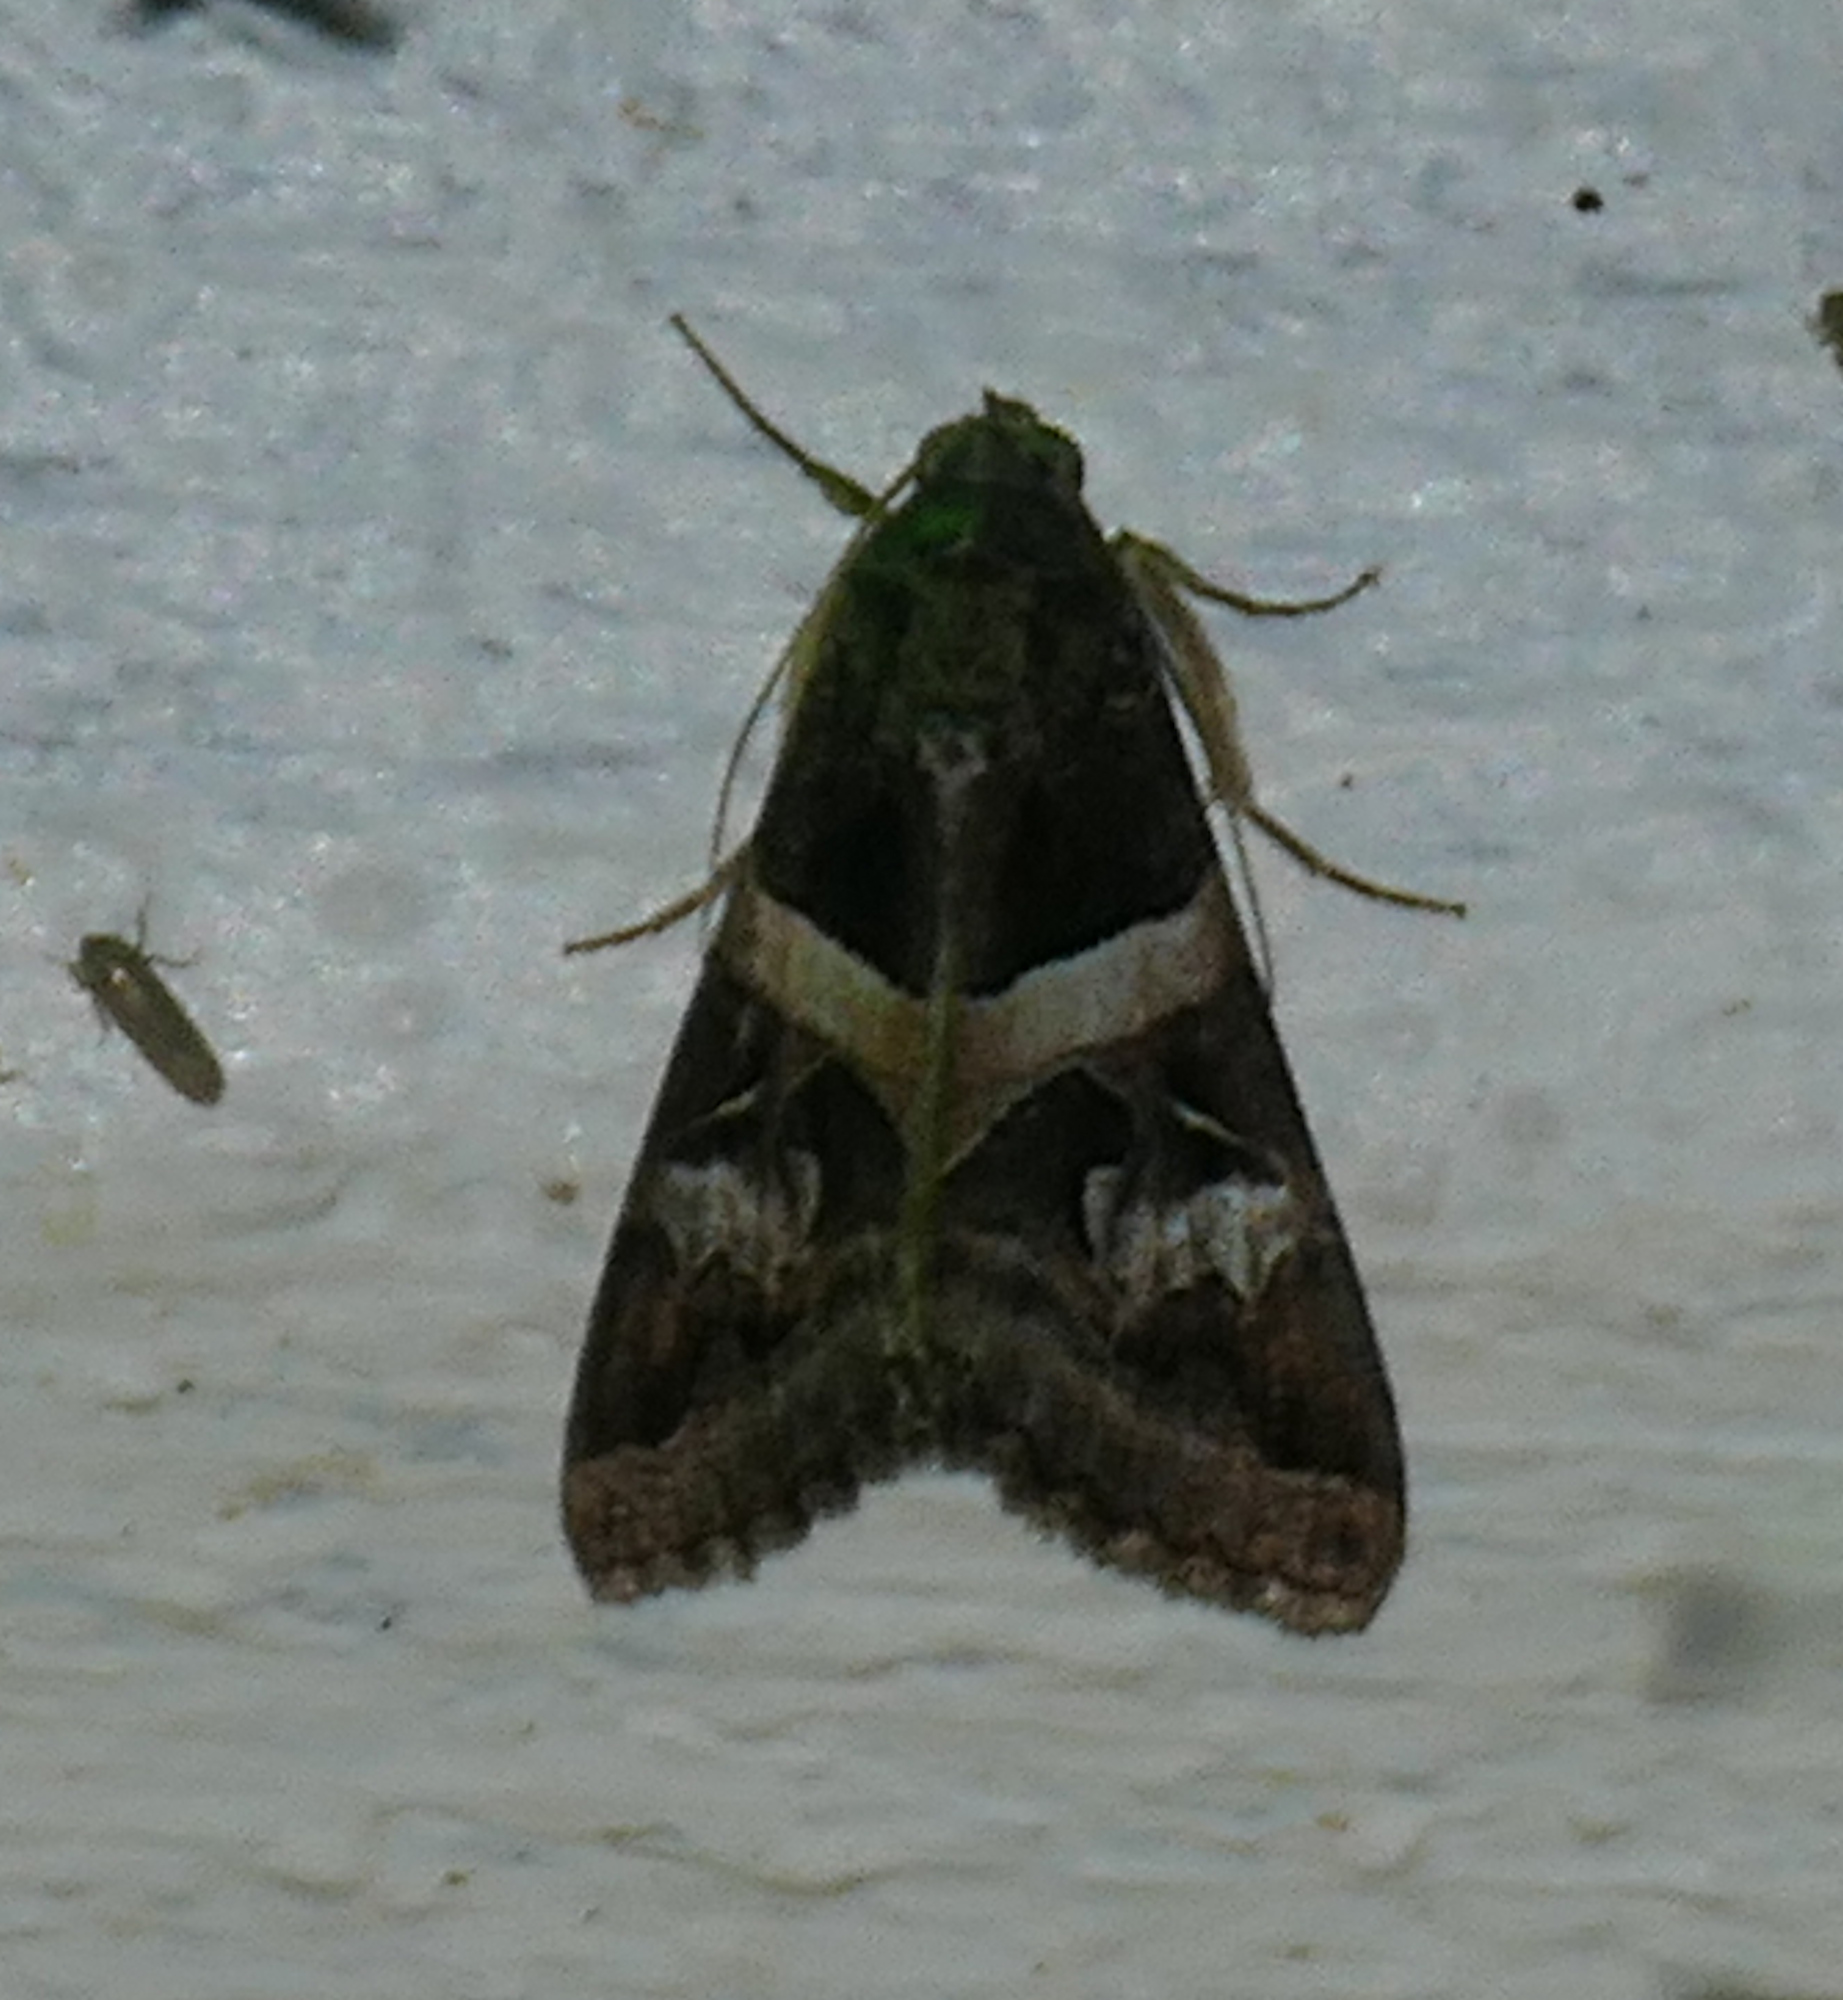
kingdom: Animalia
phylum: Arthropoda
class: Insecta
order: Lepidoptera
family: Erebidae
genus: Melipotis
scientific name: Melipotis indomita
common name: Moth
